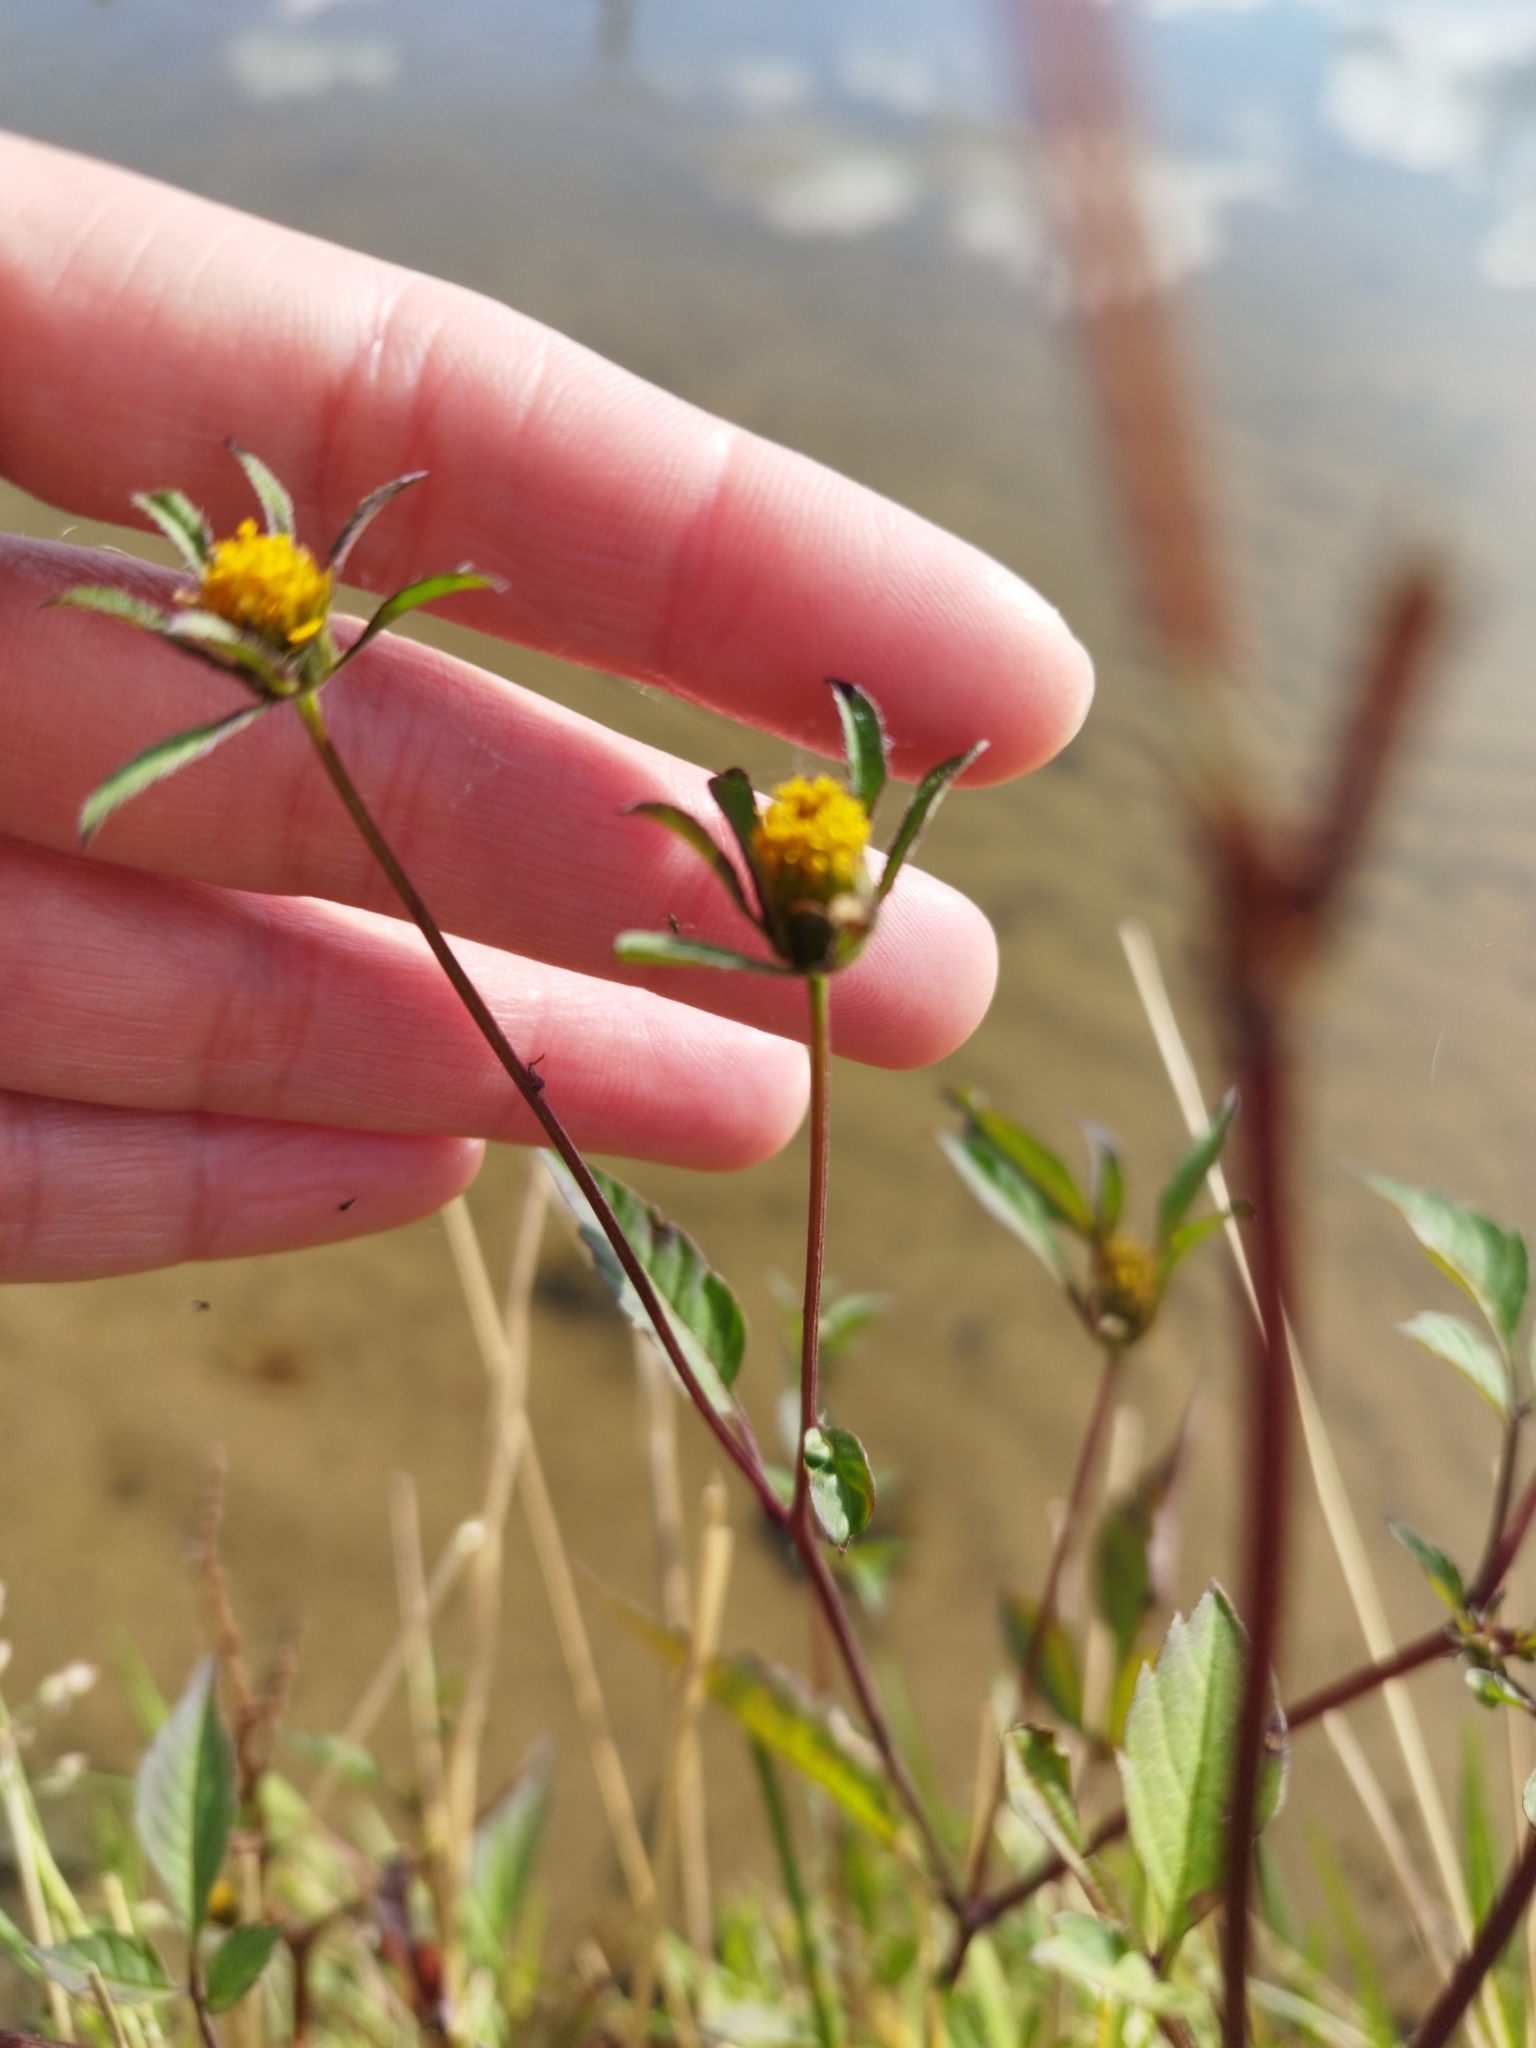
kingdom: Plantae
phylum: Tracheophyta
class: Magnoliopsida
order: Asterales
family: Asteraceae
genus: Bidens
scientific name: Bidens frondosa
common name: Beggarticks
